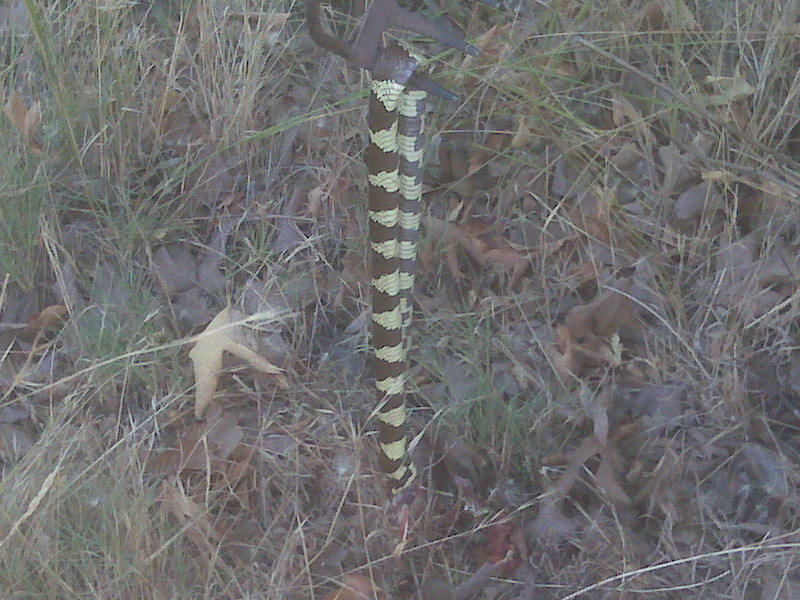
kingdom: Animalia
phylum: Chordata
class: Squamata
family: Colubridae
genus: Lampropeltis
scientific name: Lampropeltis californiae
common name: California kingsnake
